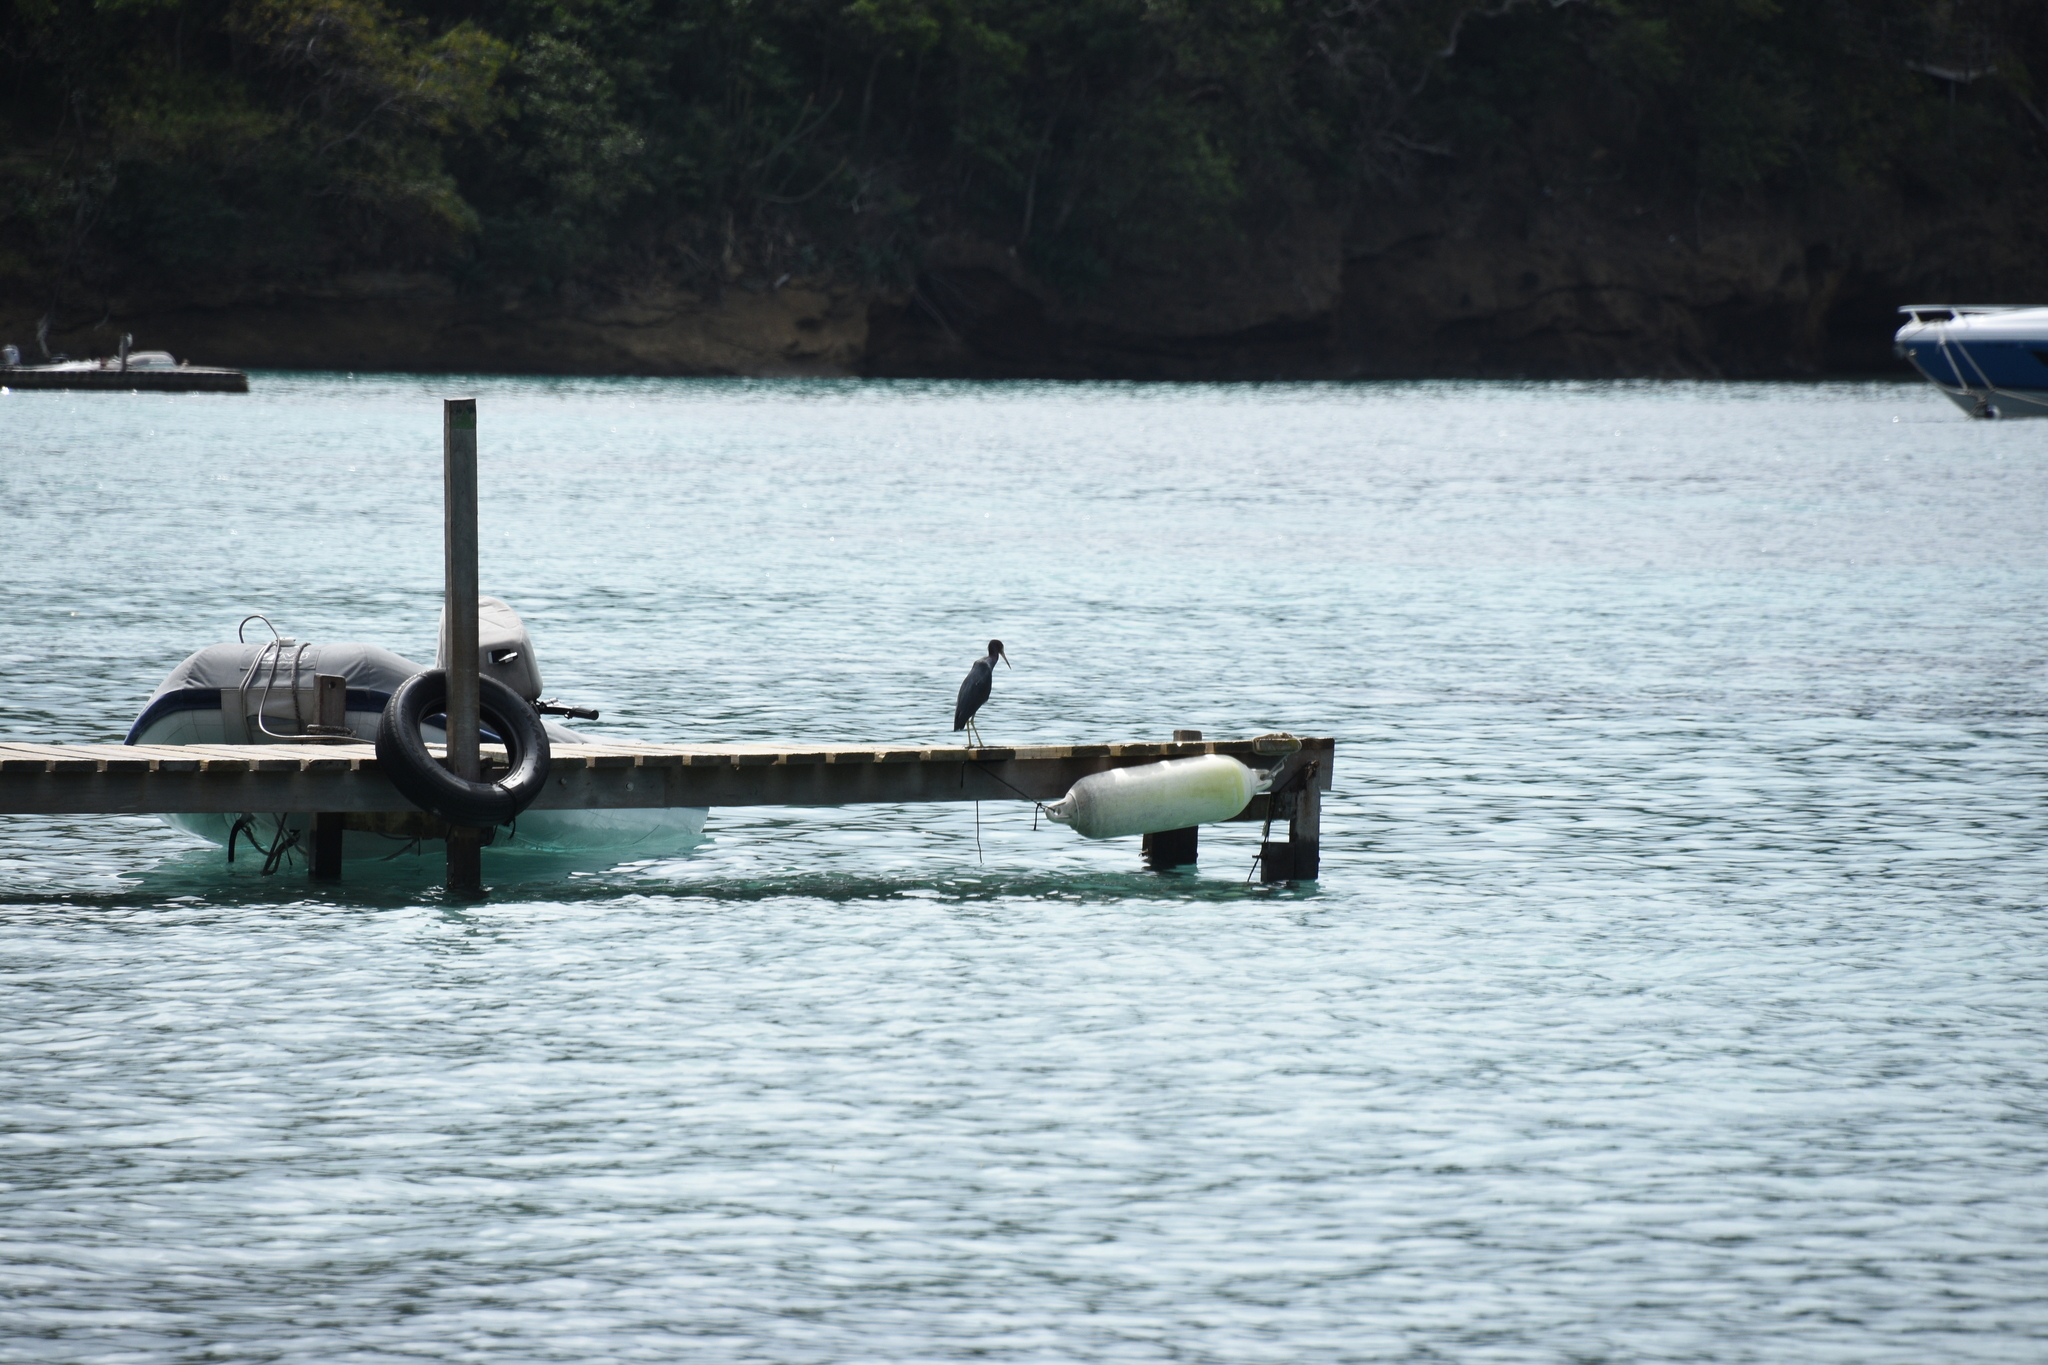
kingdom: Animalia
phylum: Chordata
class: Aves
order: Pelecaniformes
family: Ardeidae
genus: Egretta
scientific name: Egretta caerulea
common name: Little blue heron
